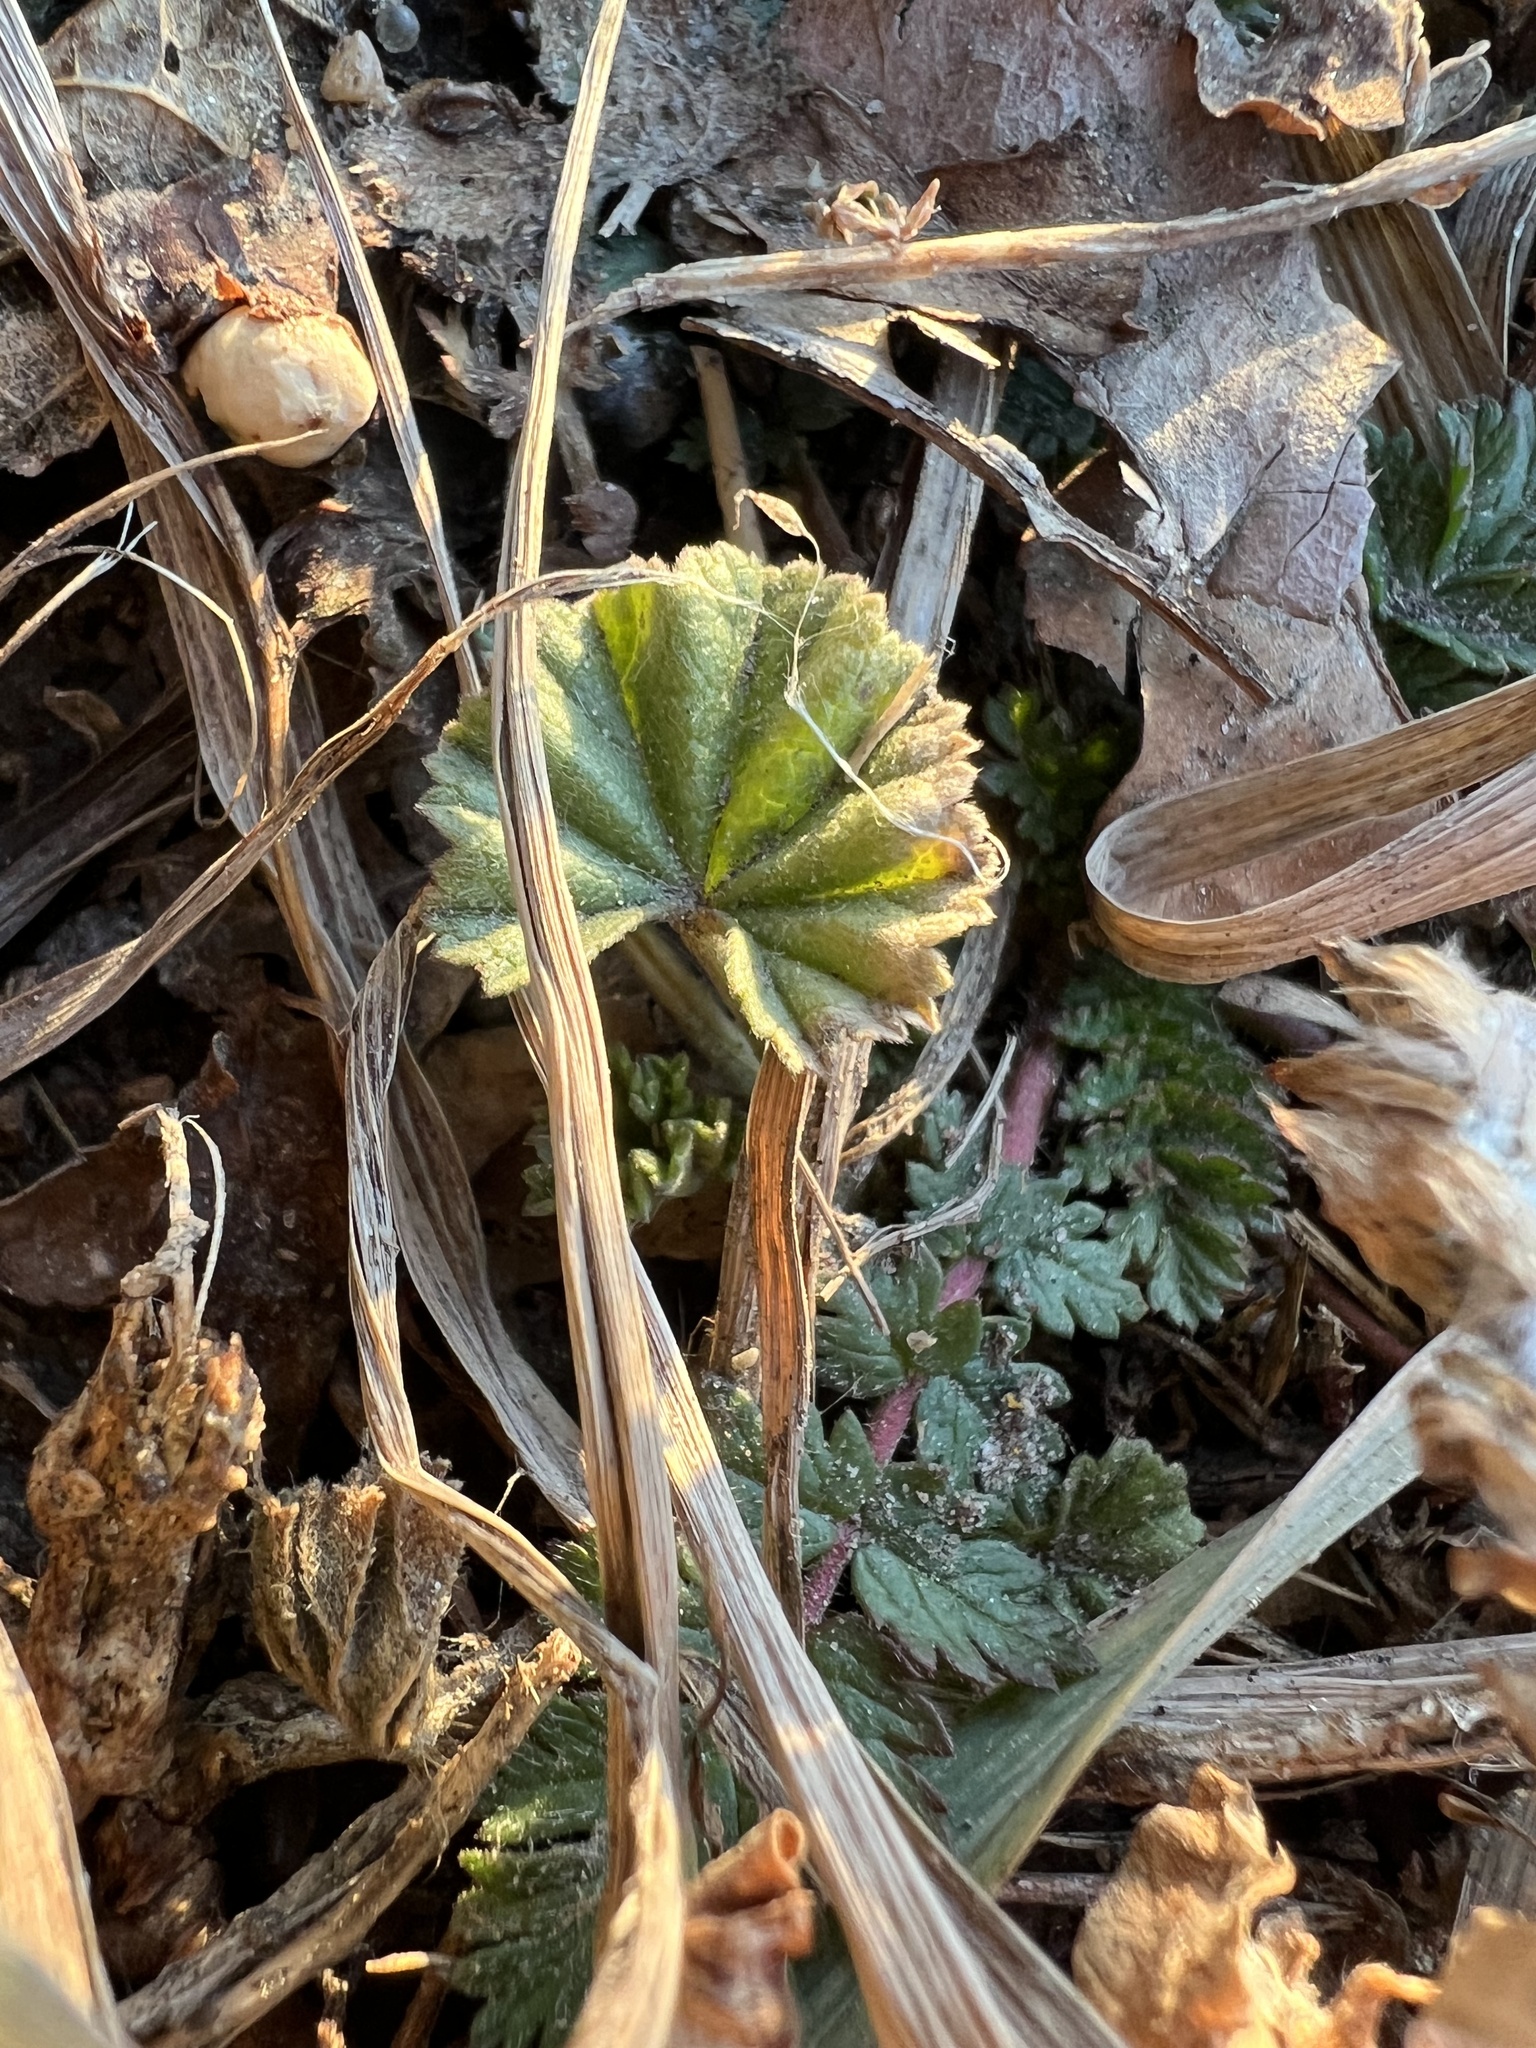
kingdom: Plantae
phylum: Tracheophyta
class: Magnoliopsida
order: Malvales
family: Malvaceae
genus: Malva
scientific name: Malva neglecta
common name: Common mallow
